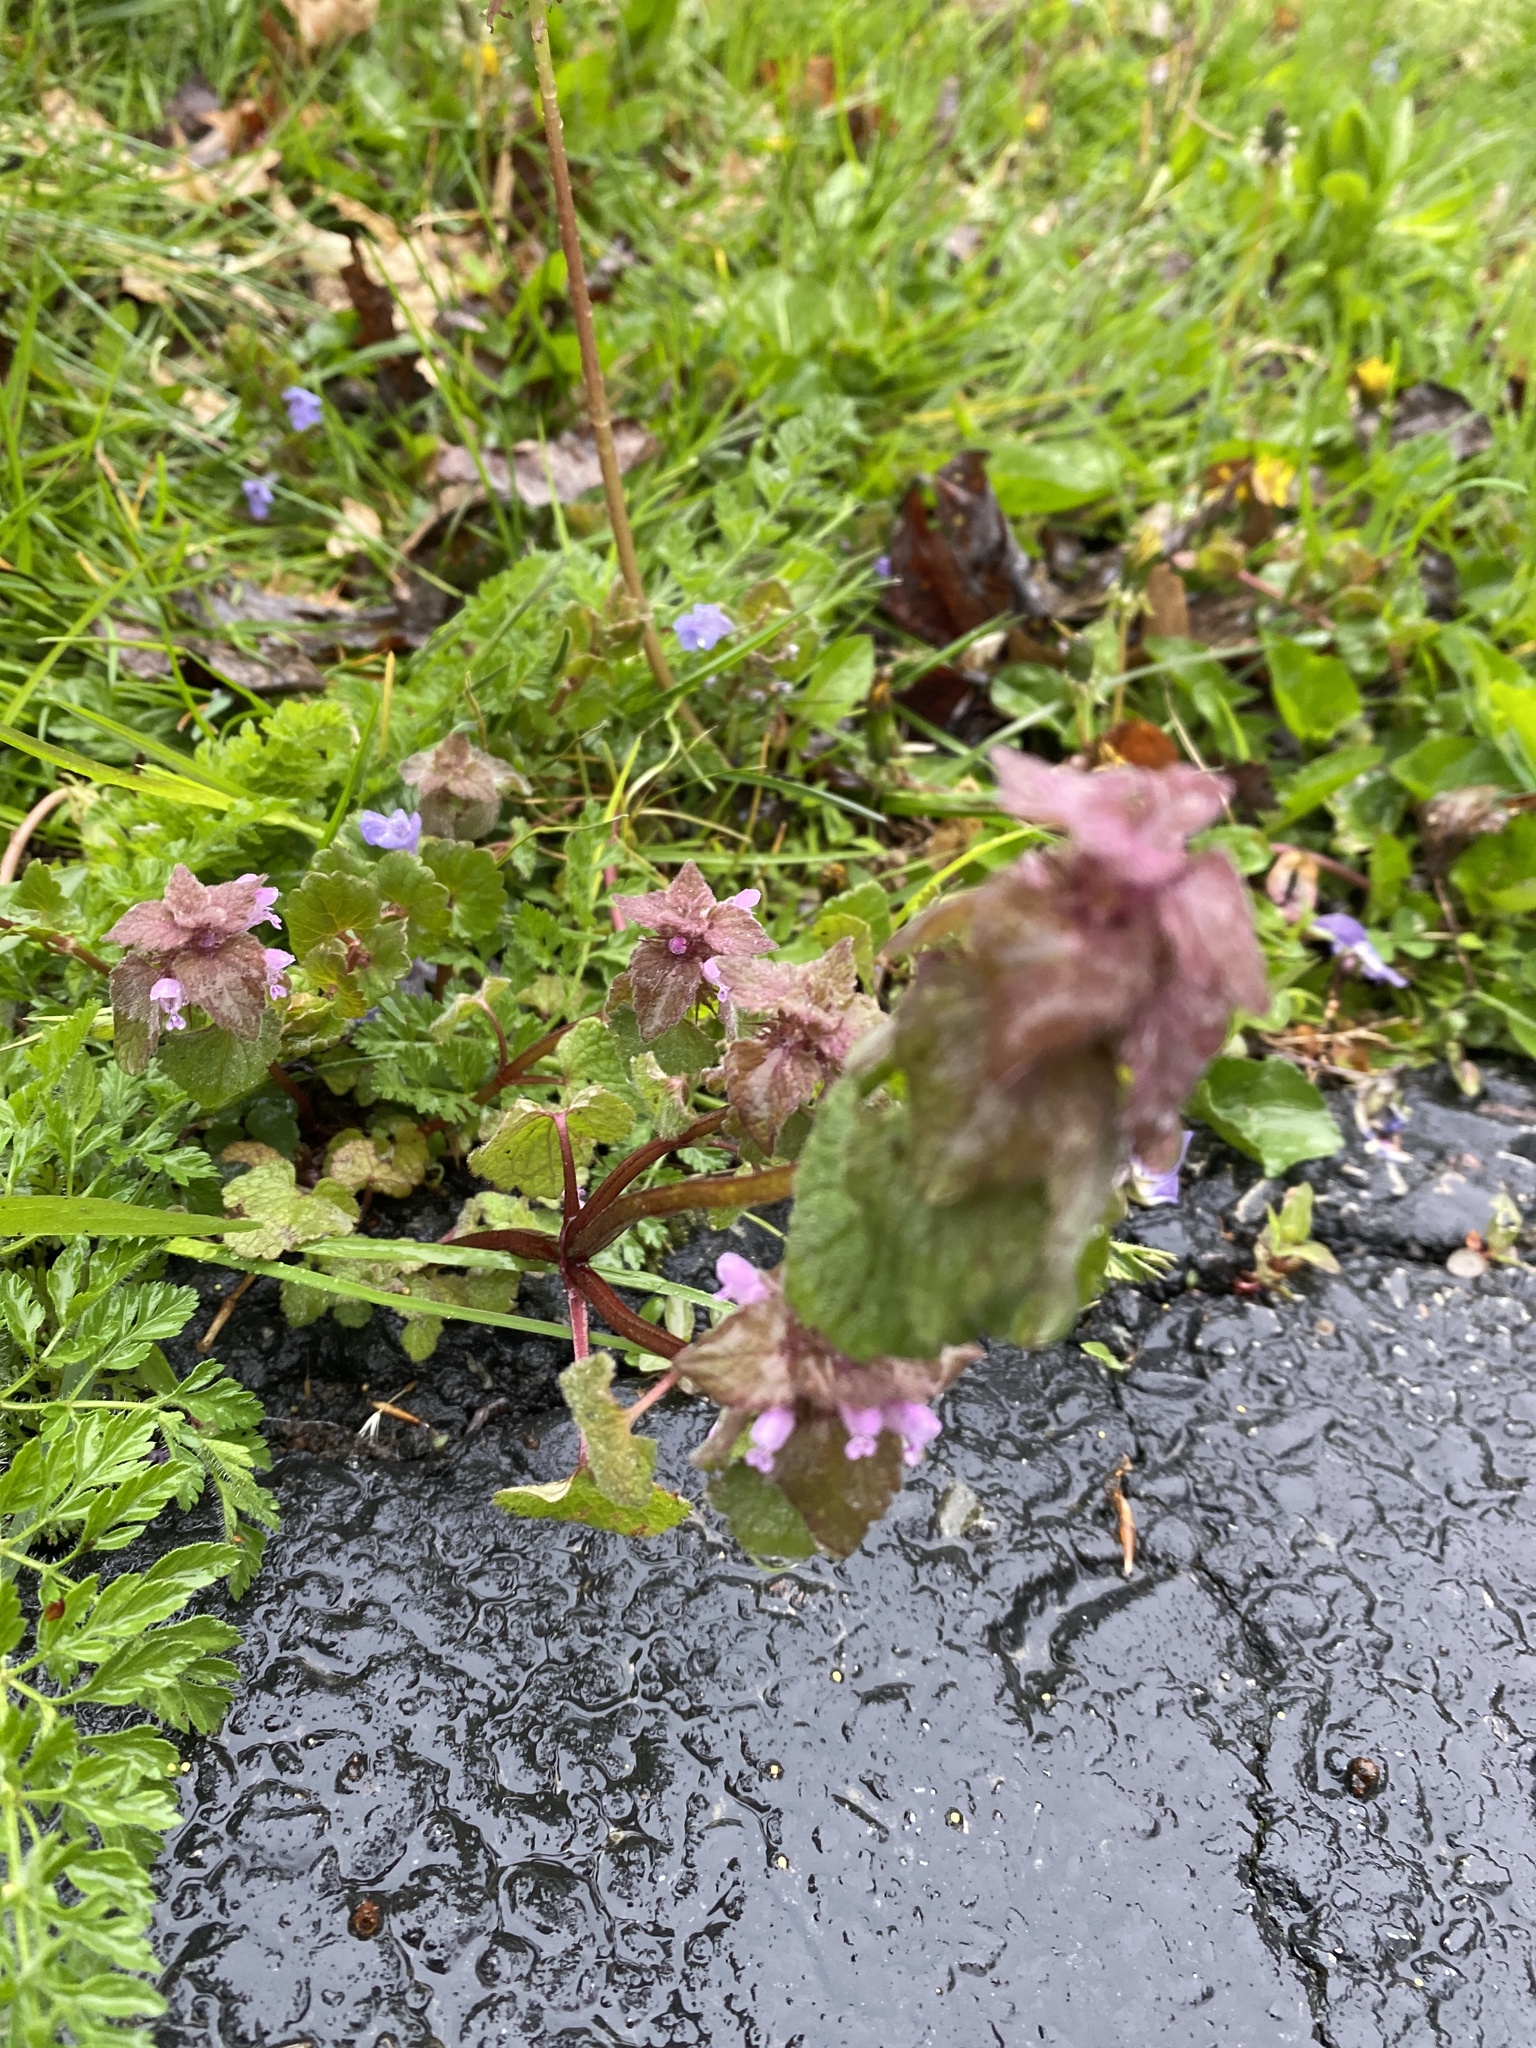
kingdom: Plantae
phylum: Tracheophyta
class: Magnoliopsida
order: Lamiales
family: Lamiaceae
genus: Lamium
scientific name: Lamium purpureum
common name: Red dead-nettle
